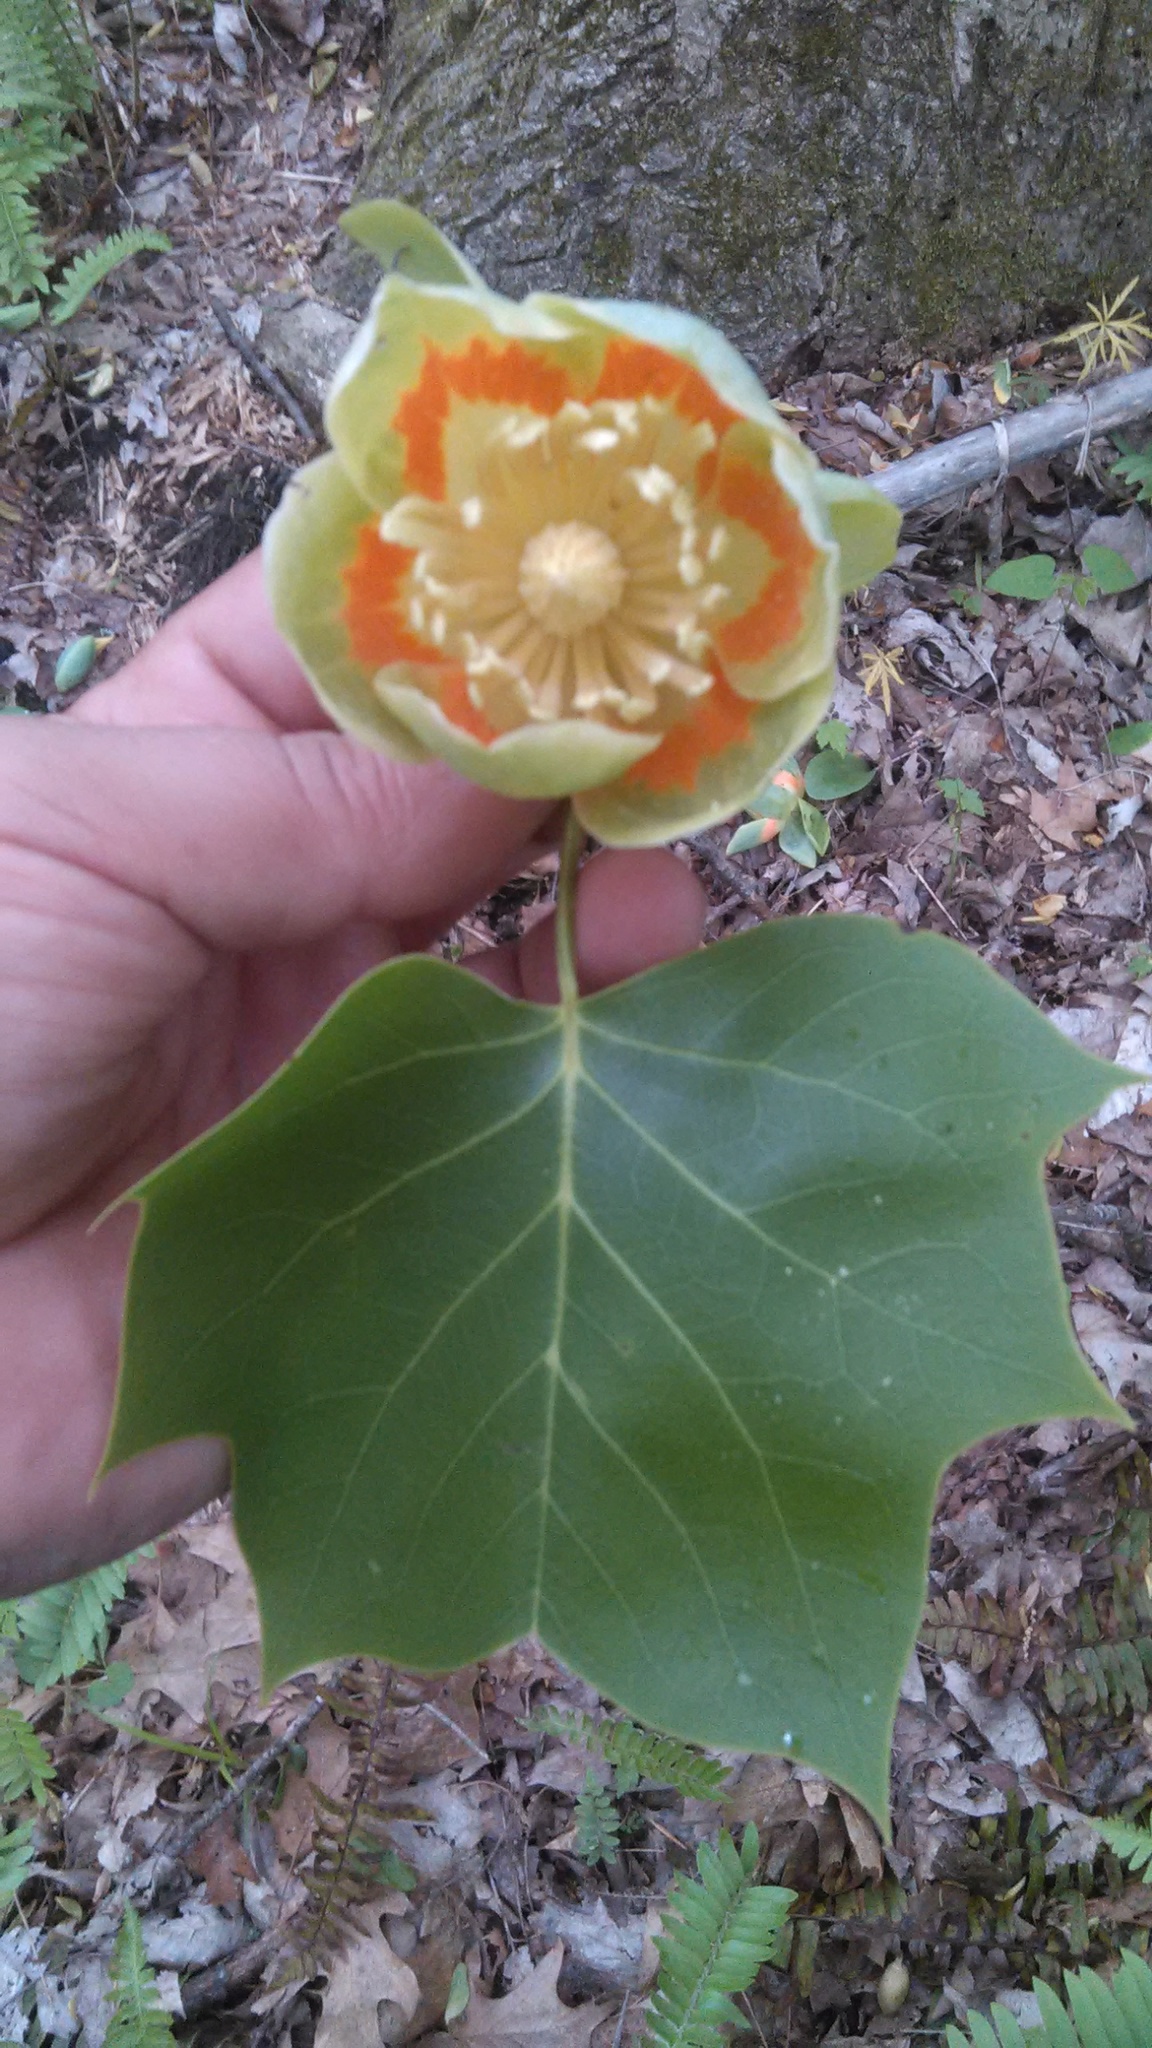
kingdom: Plantae
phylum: Tracheophyta
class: Magnoliopsida
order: Magnoliales
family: Magnoliaceae
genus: Liriodendron
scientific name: Liriodendron tulipifera
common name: Tulip tree
